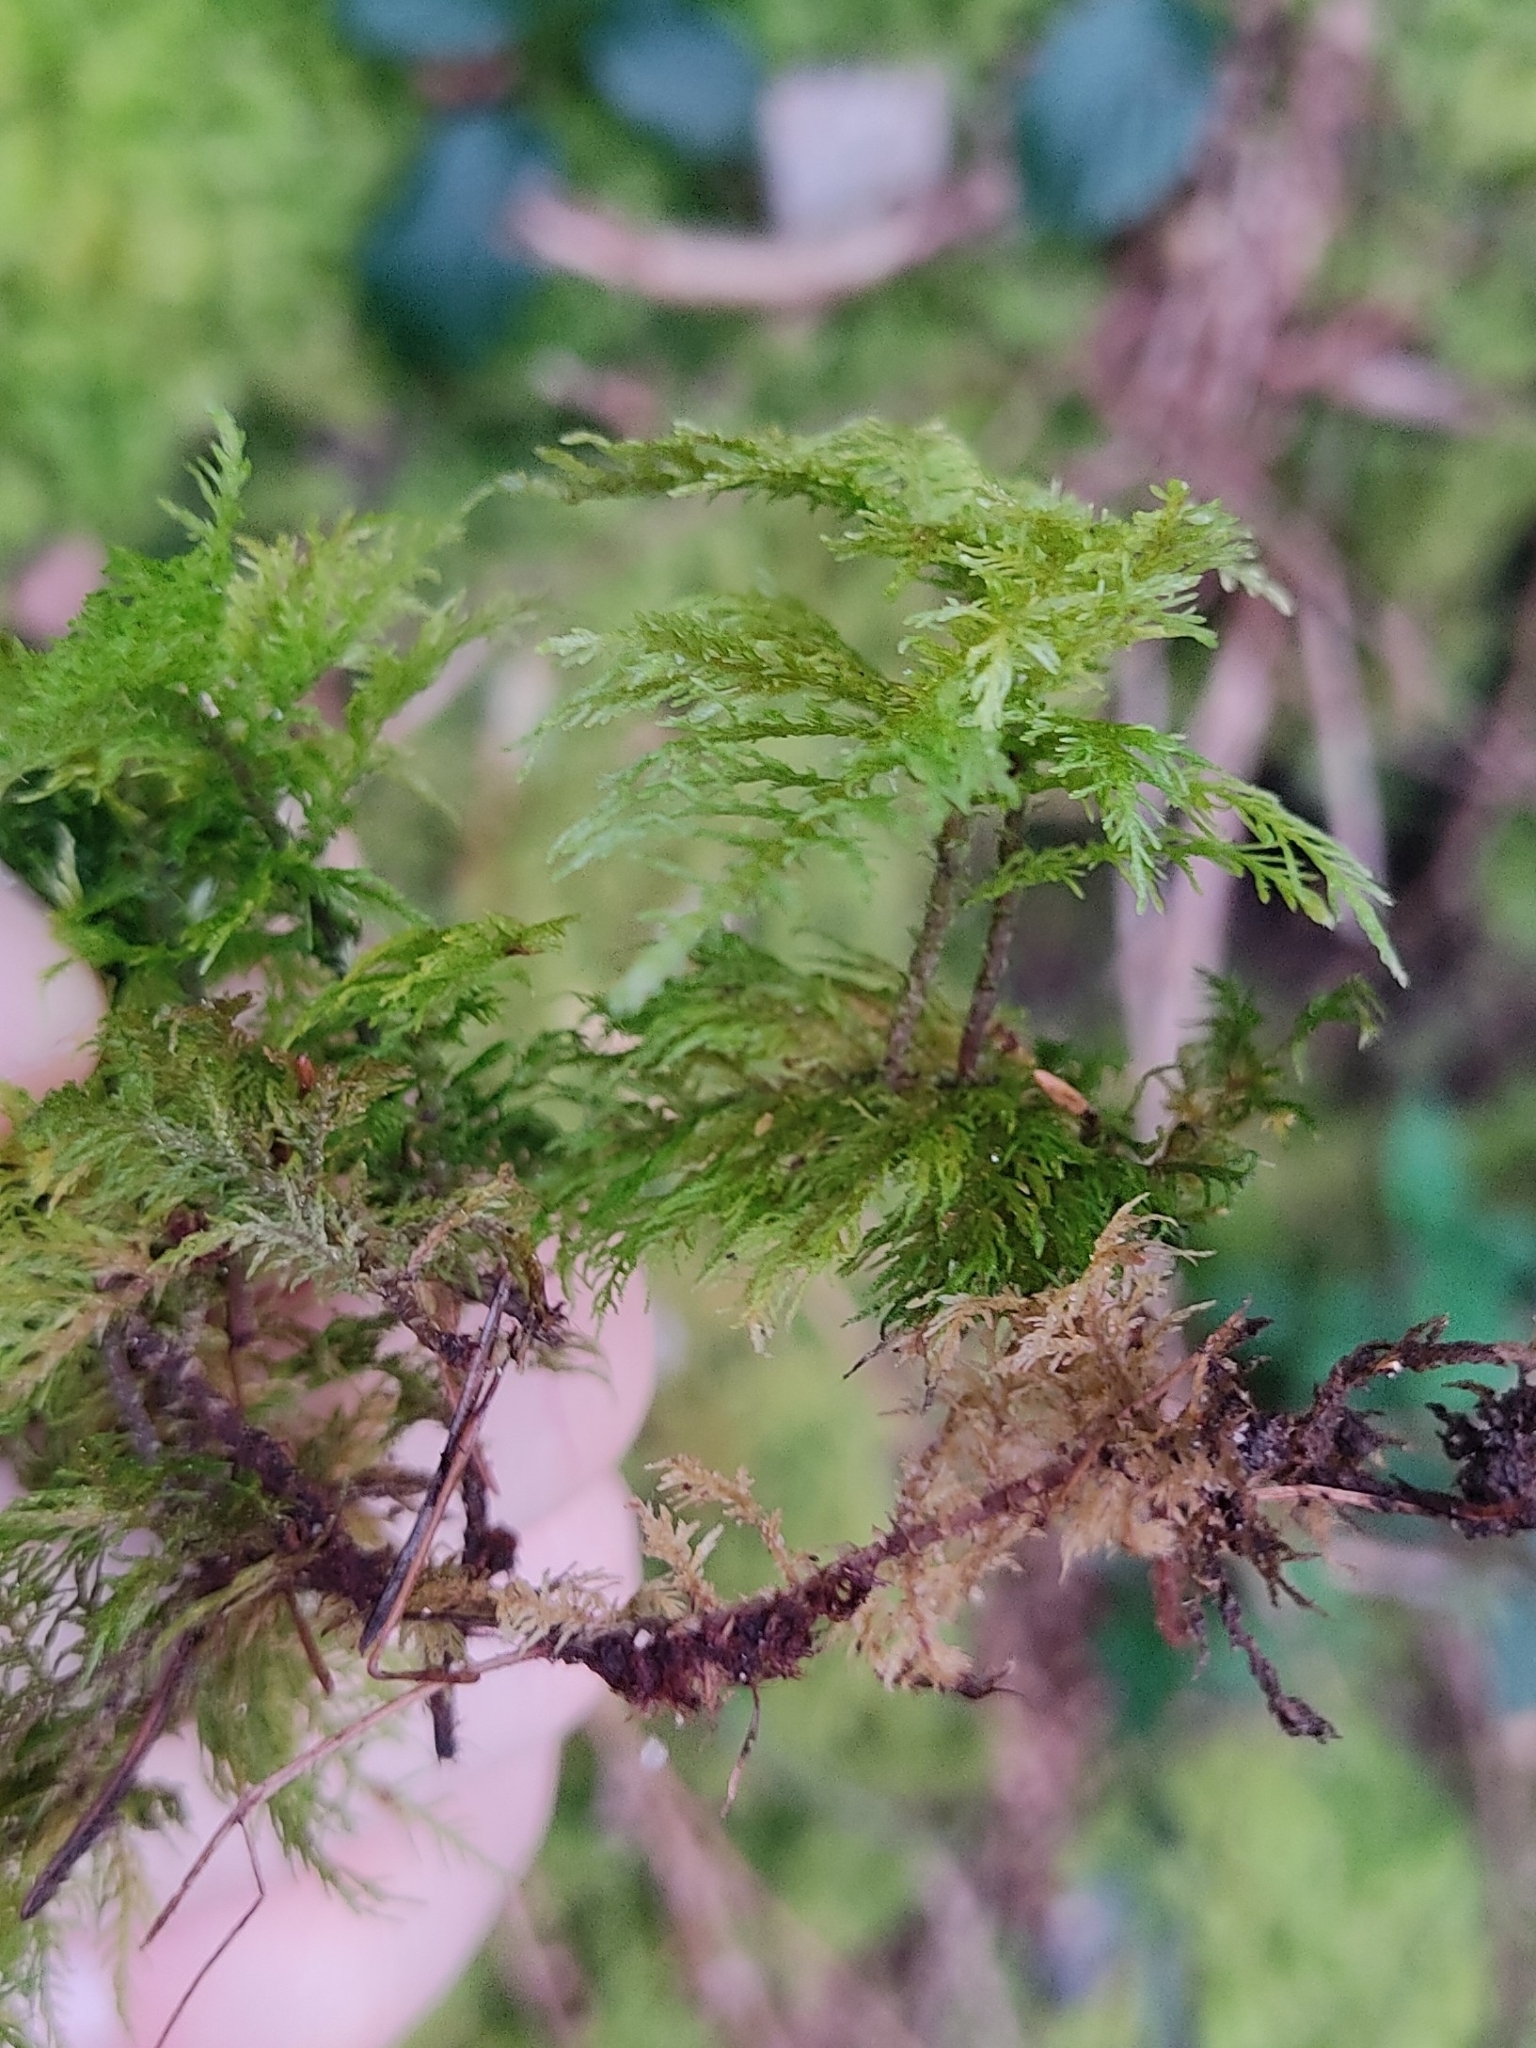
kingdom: Plantae
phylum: Bryophyta
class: Bryopsida
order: Hypnales
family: Thuidiaceae
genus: Thuidium
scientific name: Thuidium tamariscinum
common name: Common tamarisk-moss
